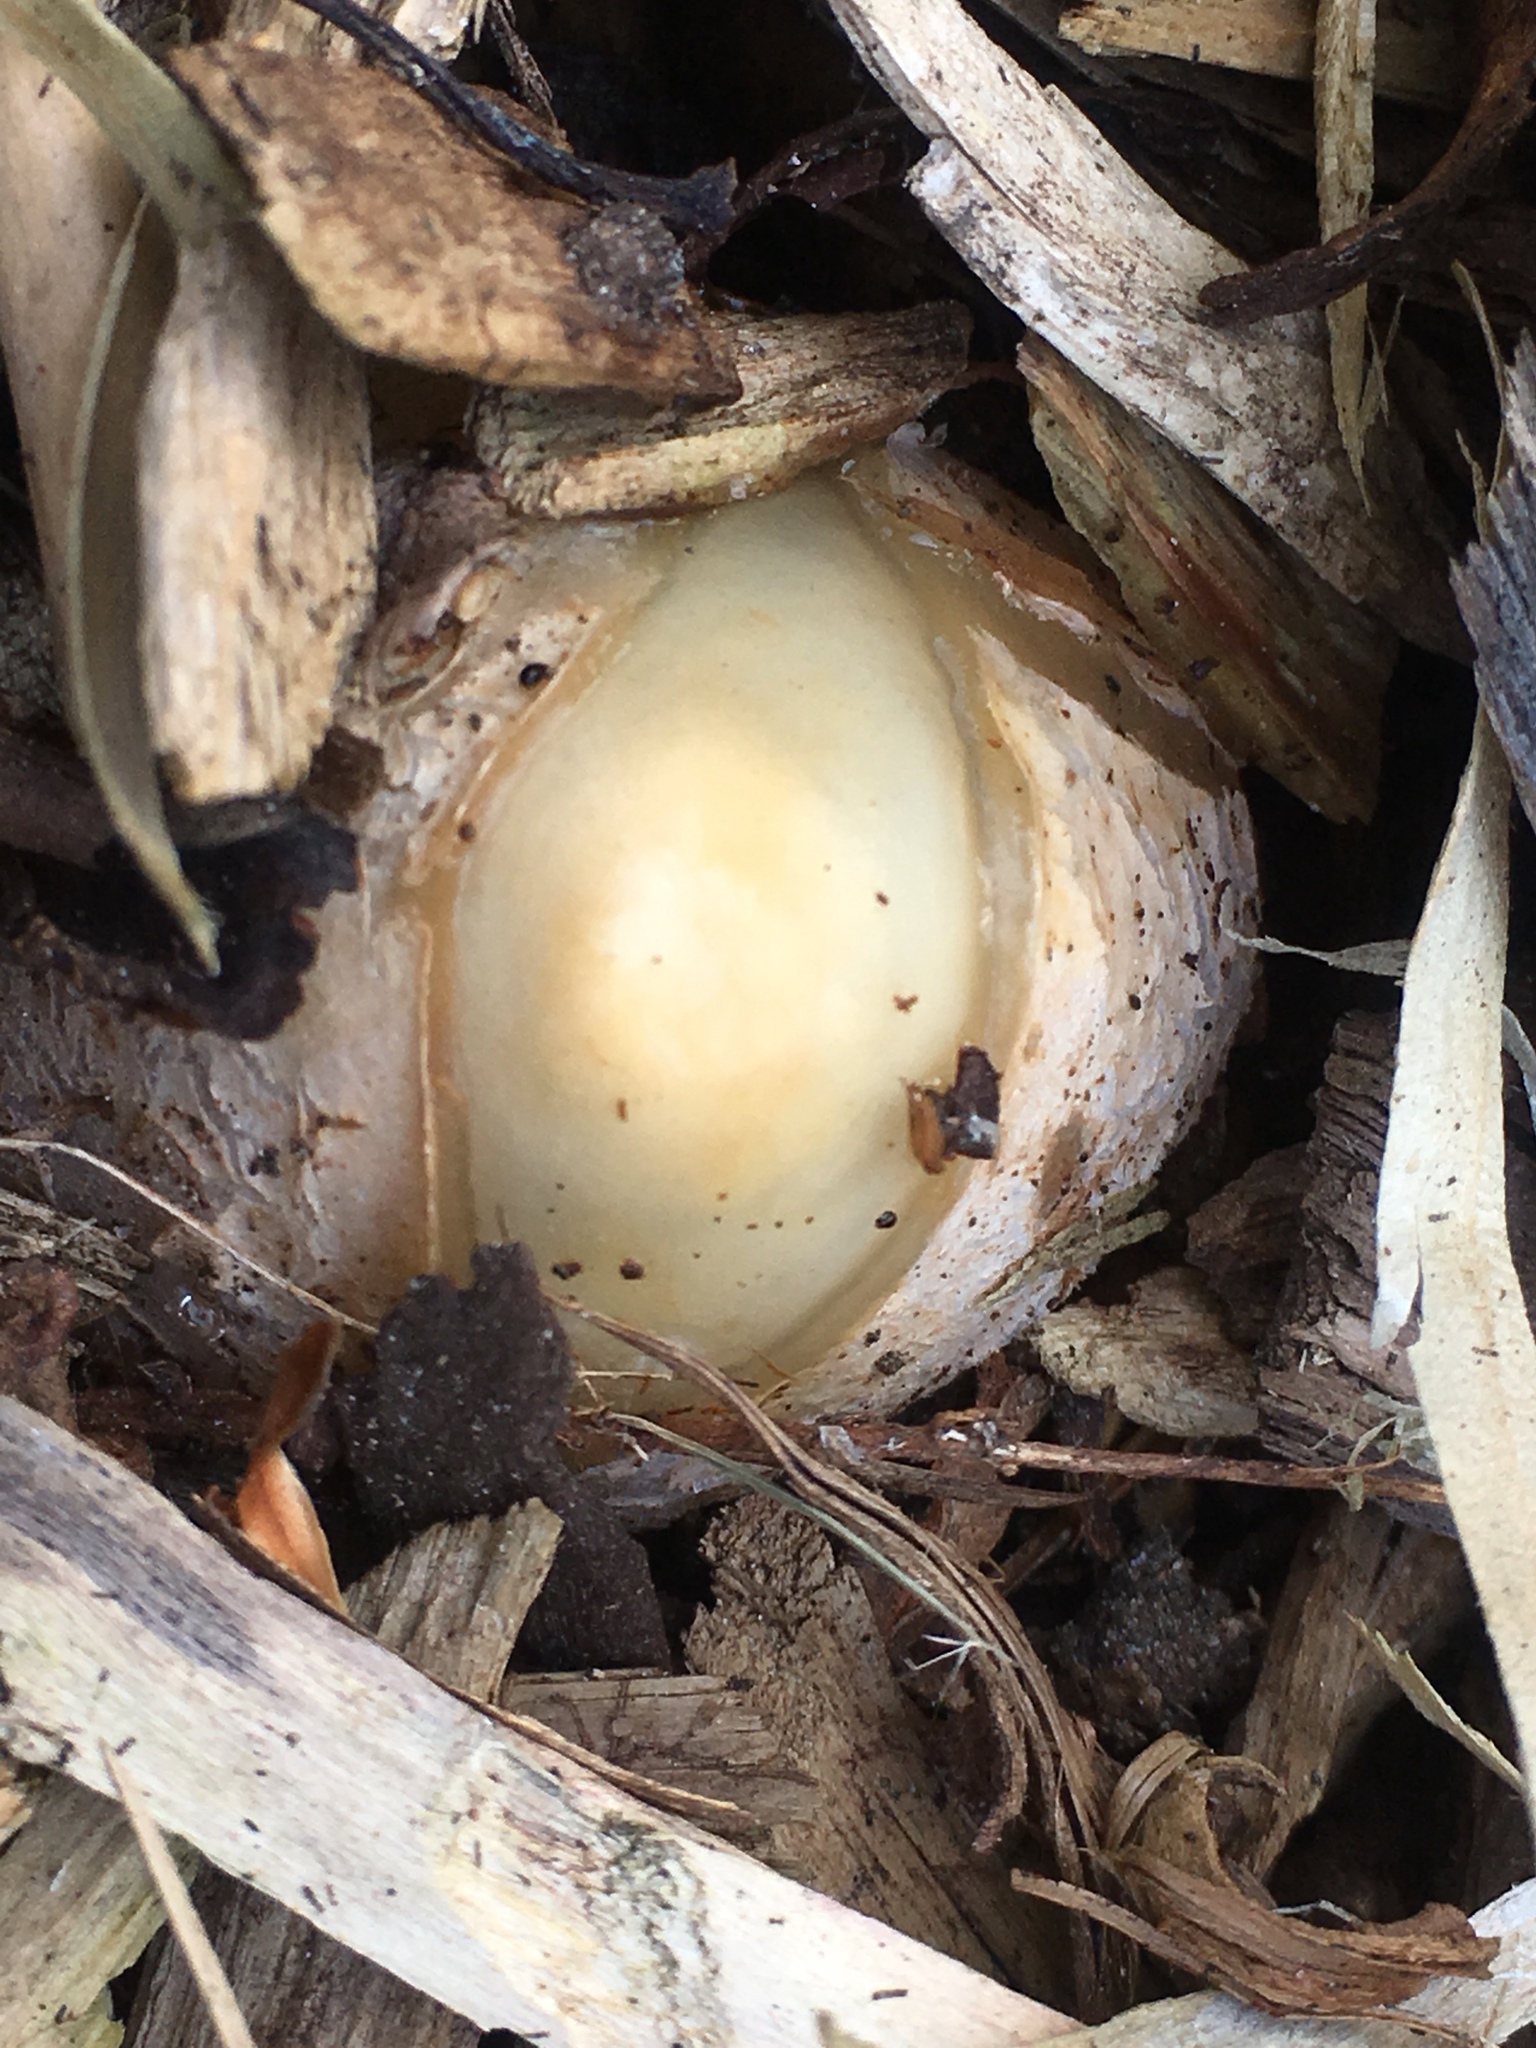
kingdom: Fungi
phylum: Basidiomycota
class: Agaricomycetes
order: Phallales
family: Phallaceae
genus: Phallus
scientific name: Phallus ravenelii
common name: Ravenel's stinkhorn
